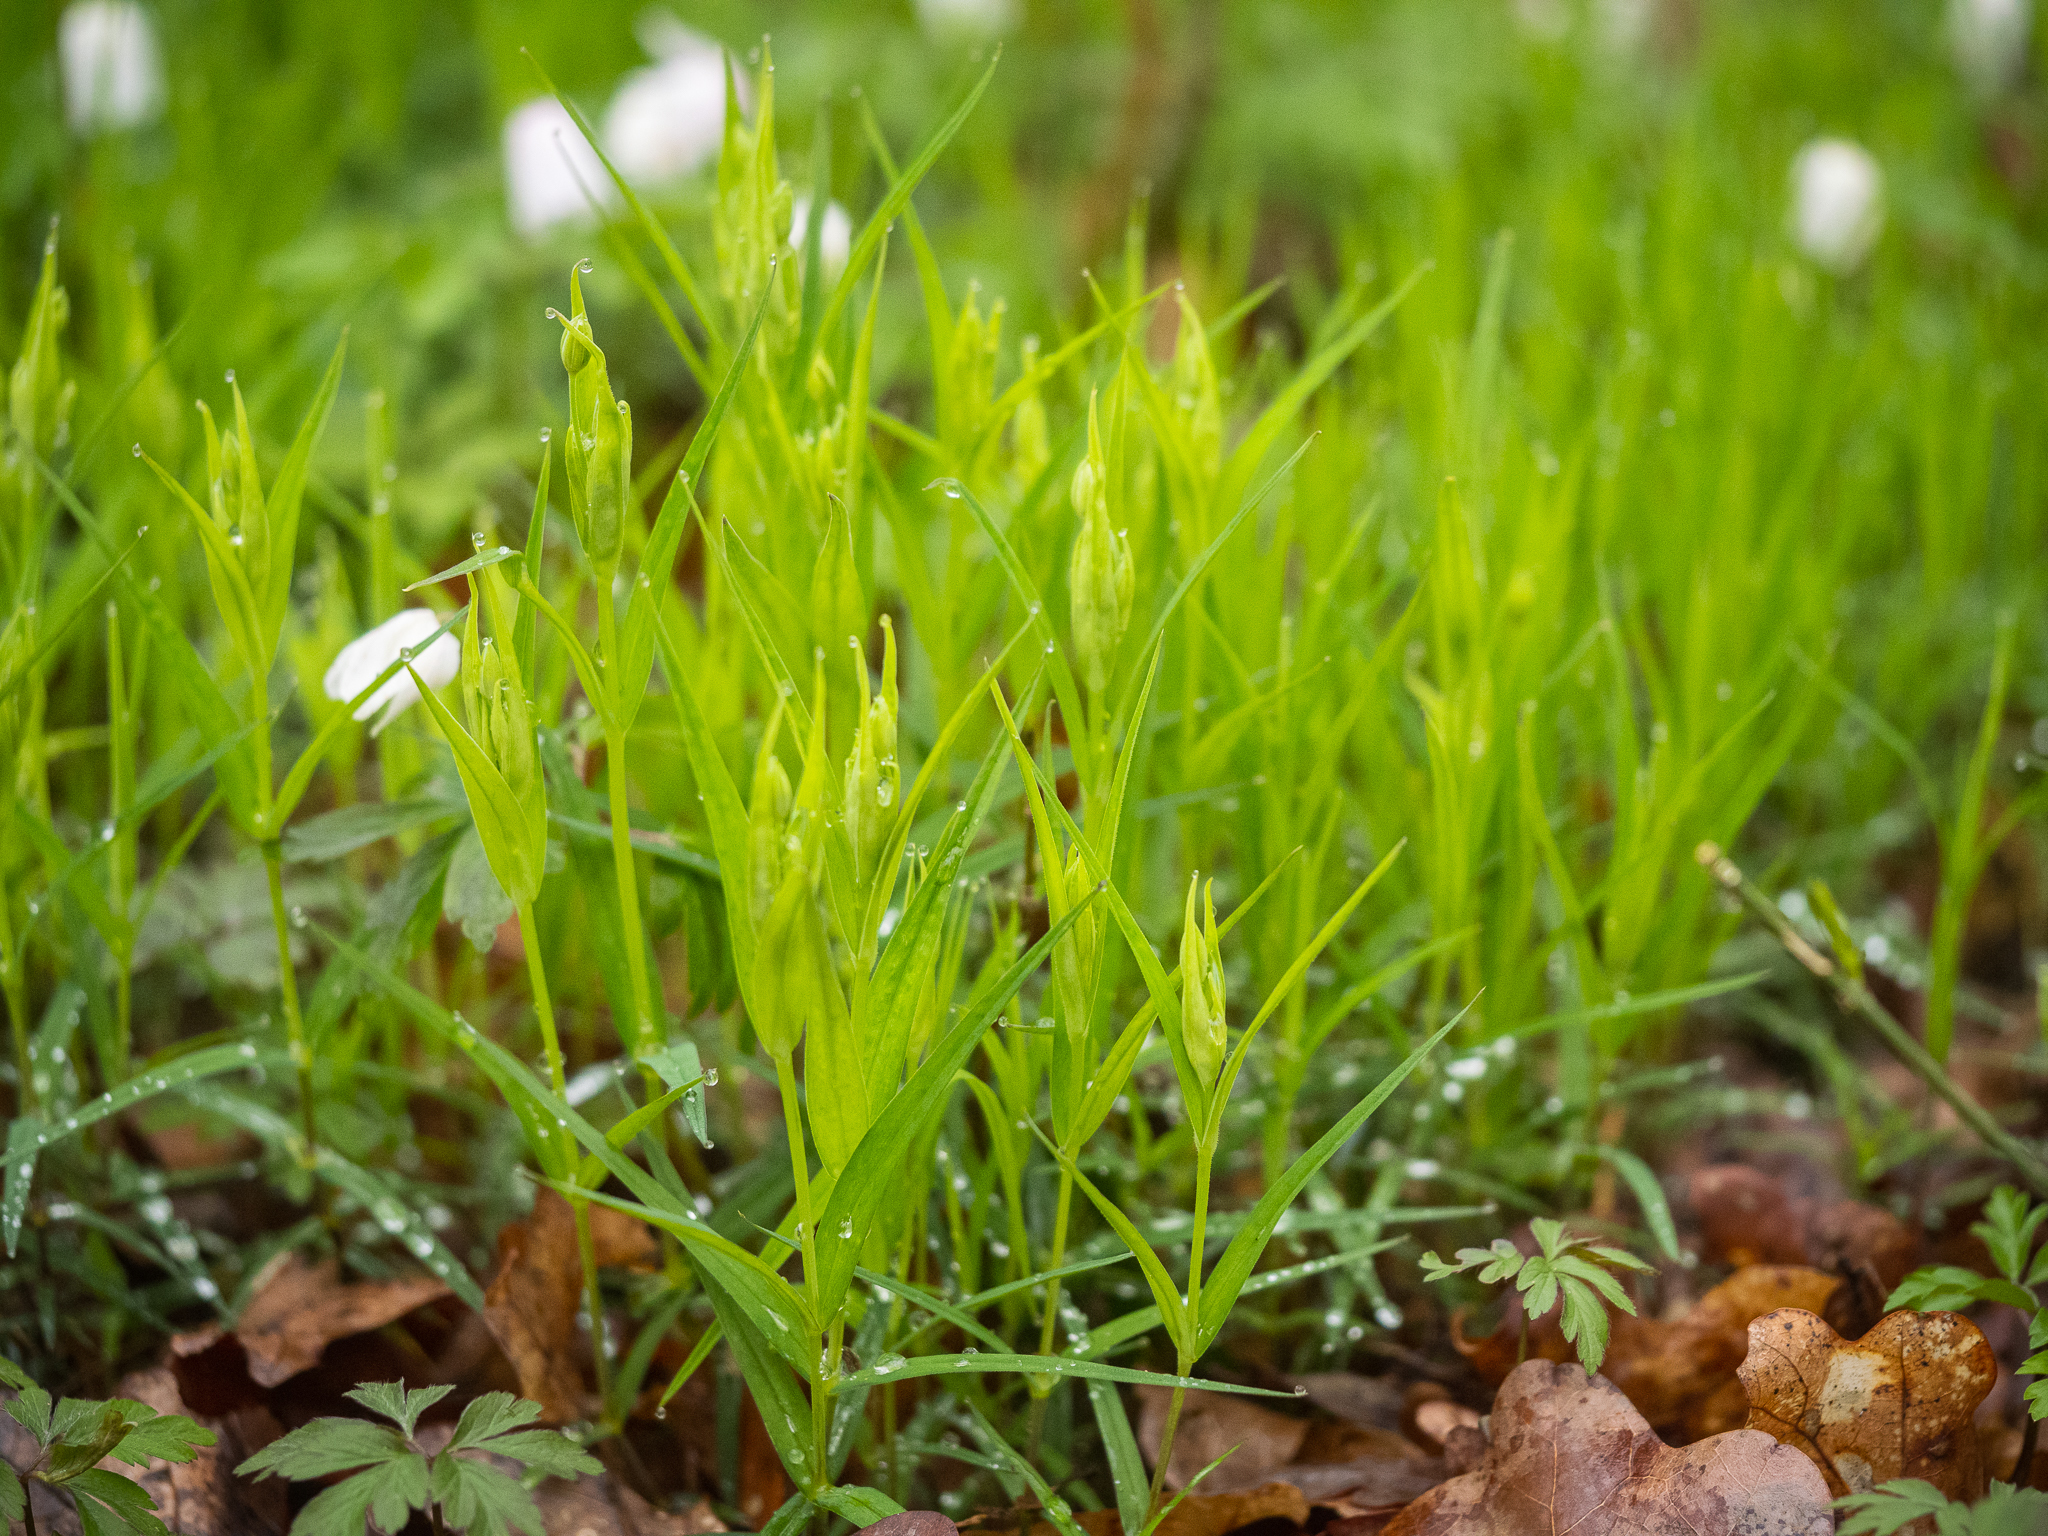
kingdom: Plantae
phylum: Tracheophyta
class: Magnoliopsida
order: Caryophyllales
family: Caryophyllaceae
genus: Rabelera
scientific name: Rabelera holostea
